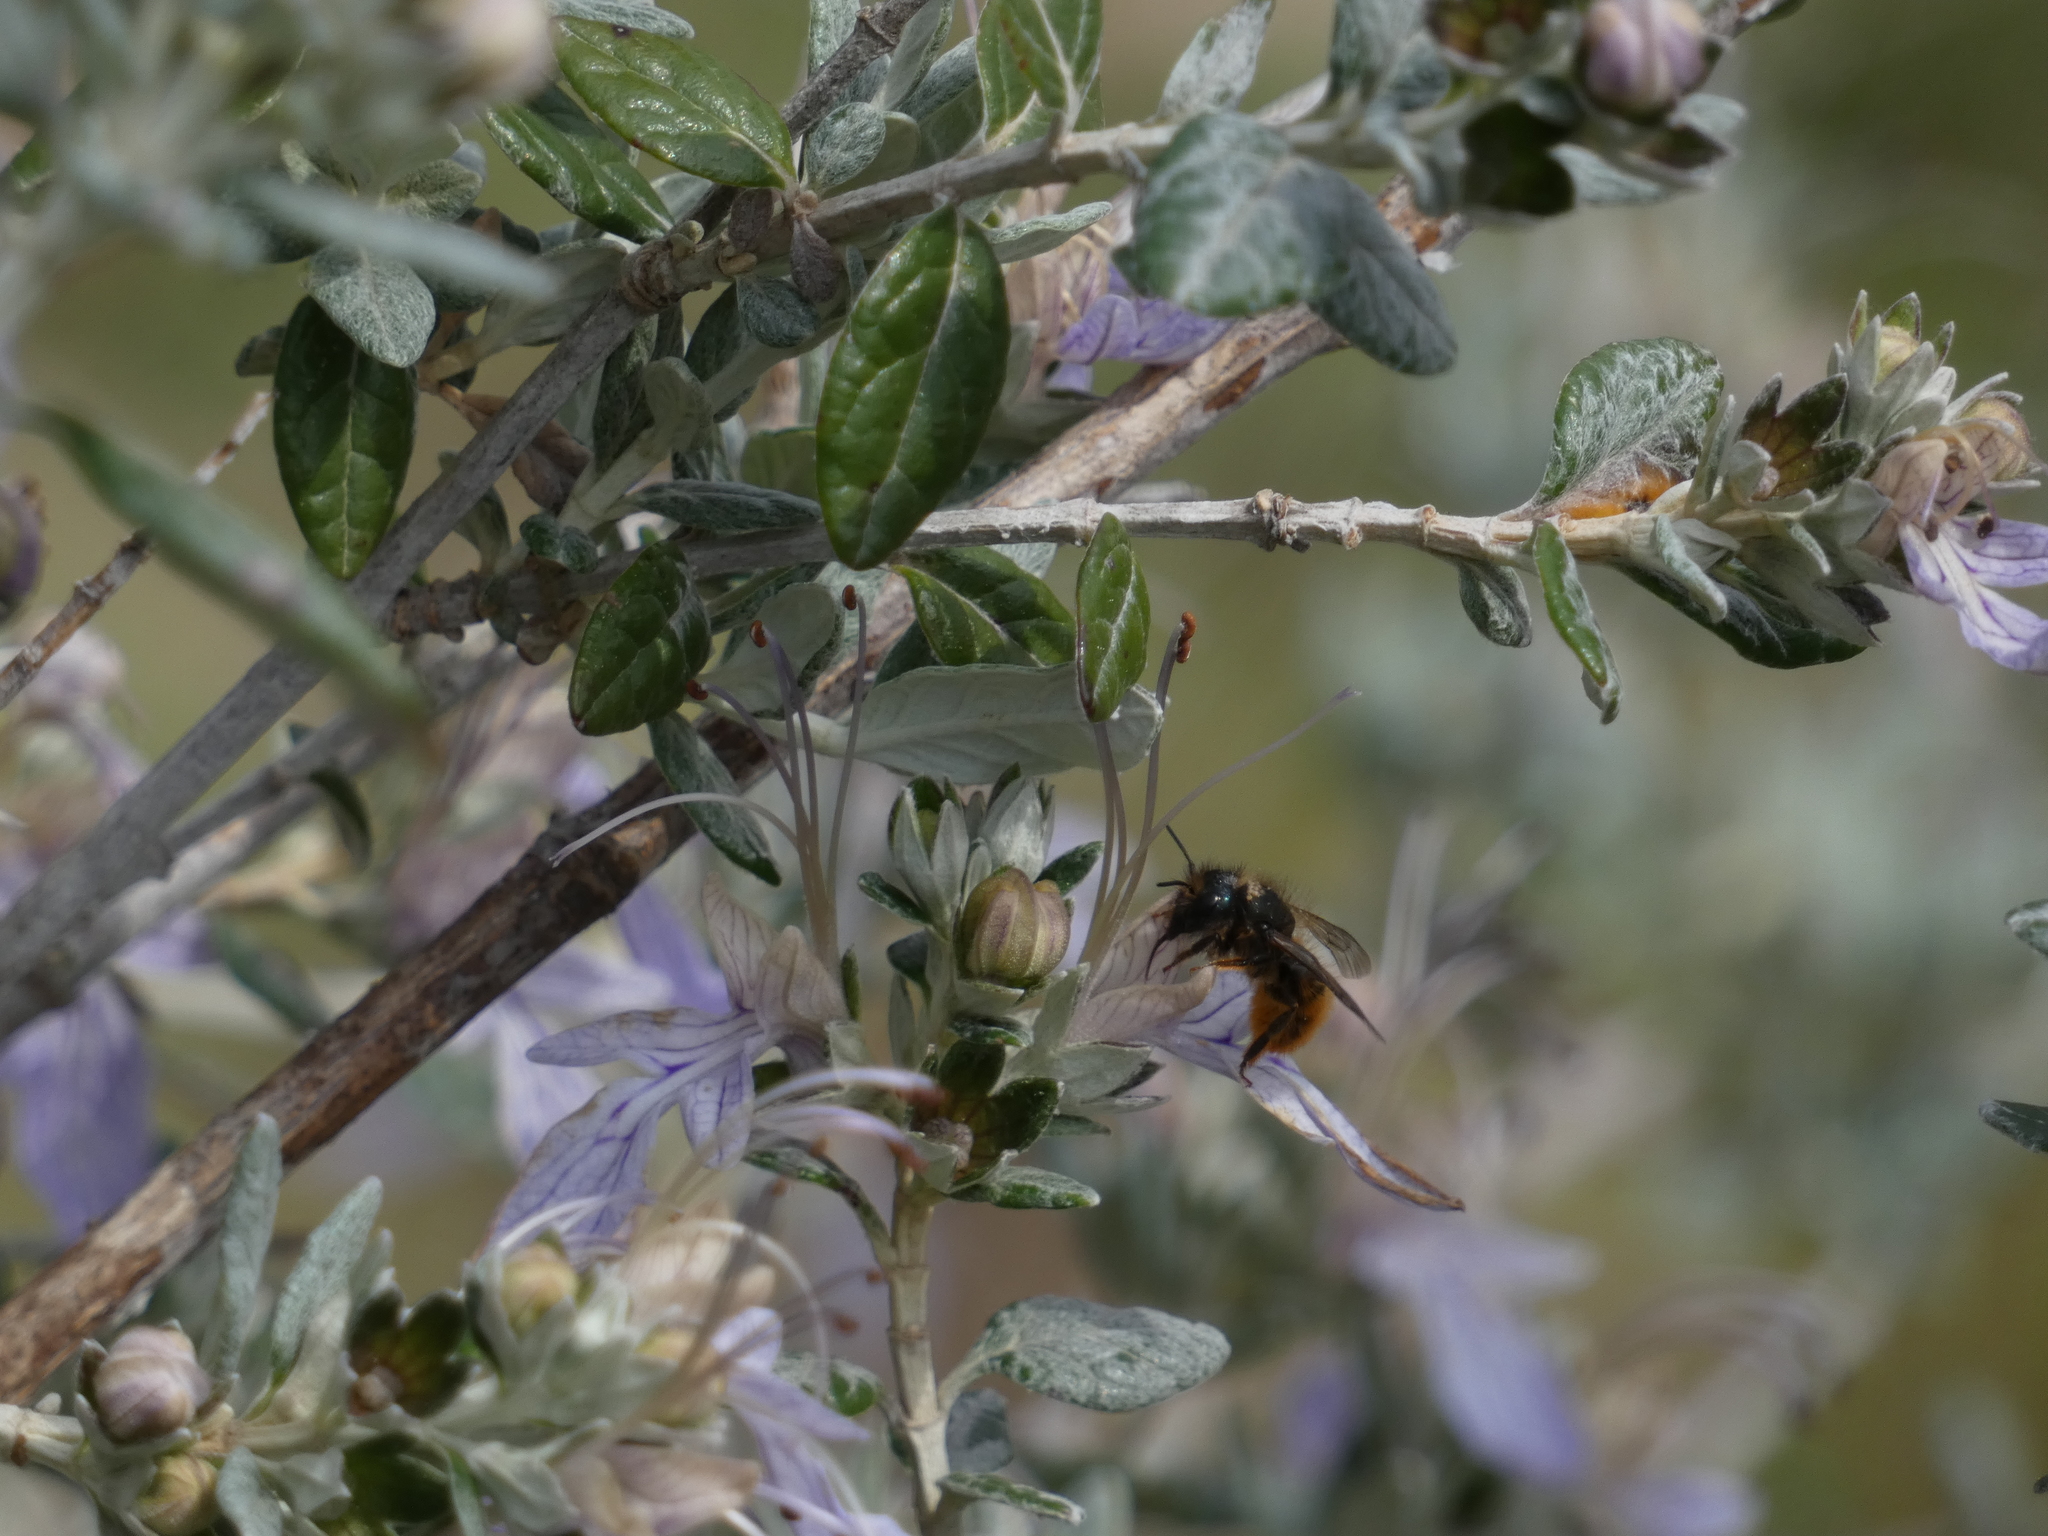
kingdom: Animalia
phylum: Arthropoda
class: Insecta
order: Hymenoptera
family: Megachilidae
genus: Osmia
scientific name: Osmia cornuta
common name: Mason bee
